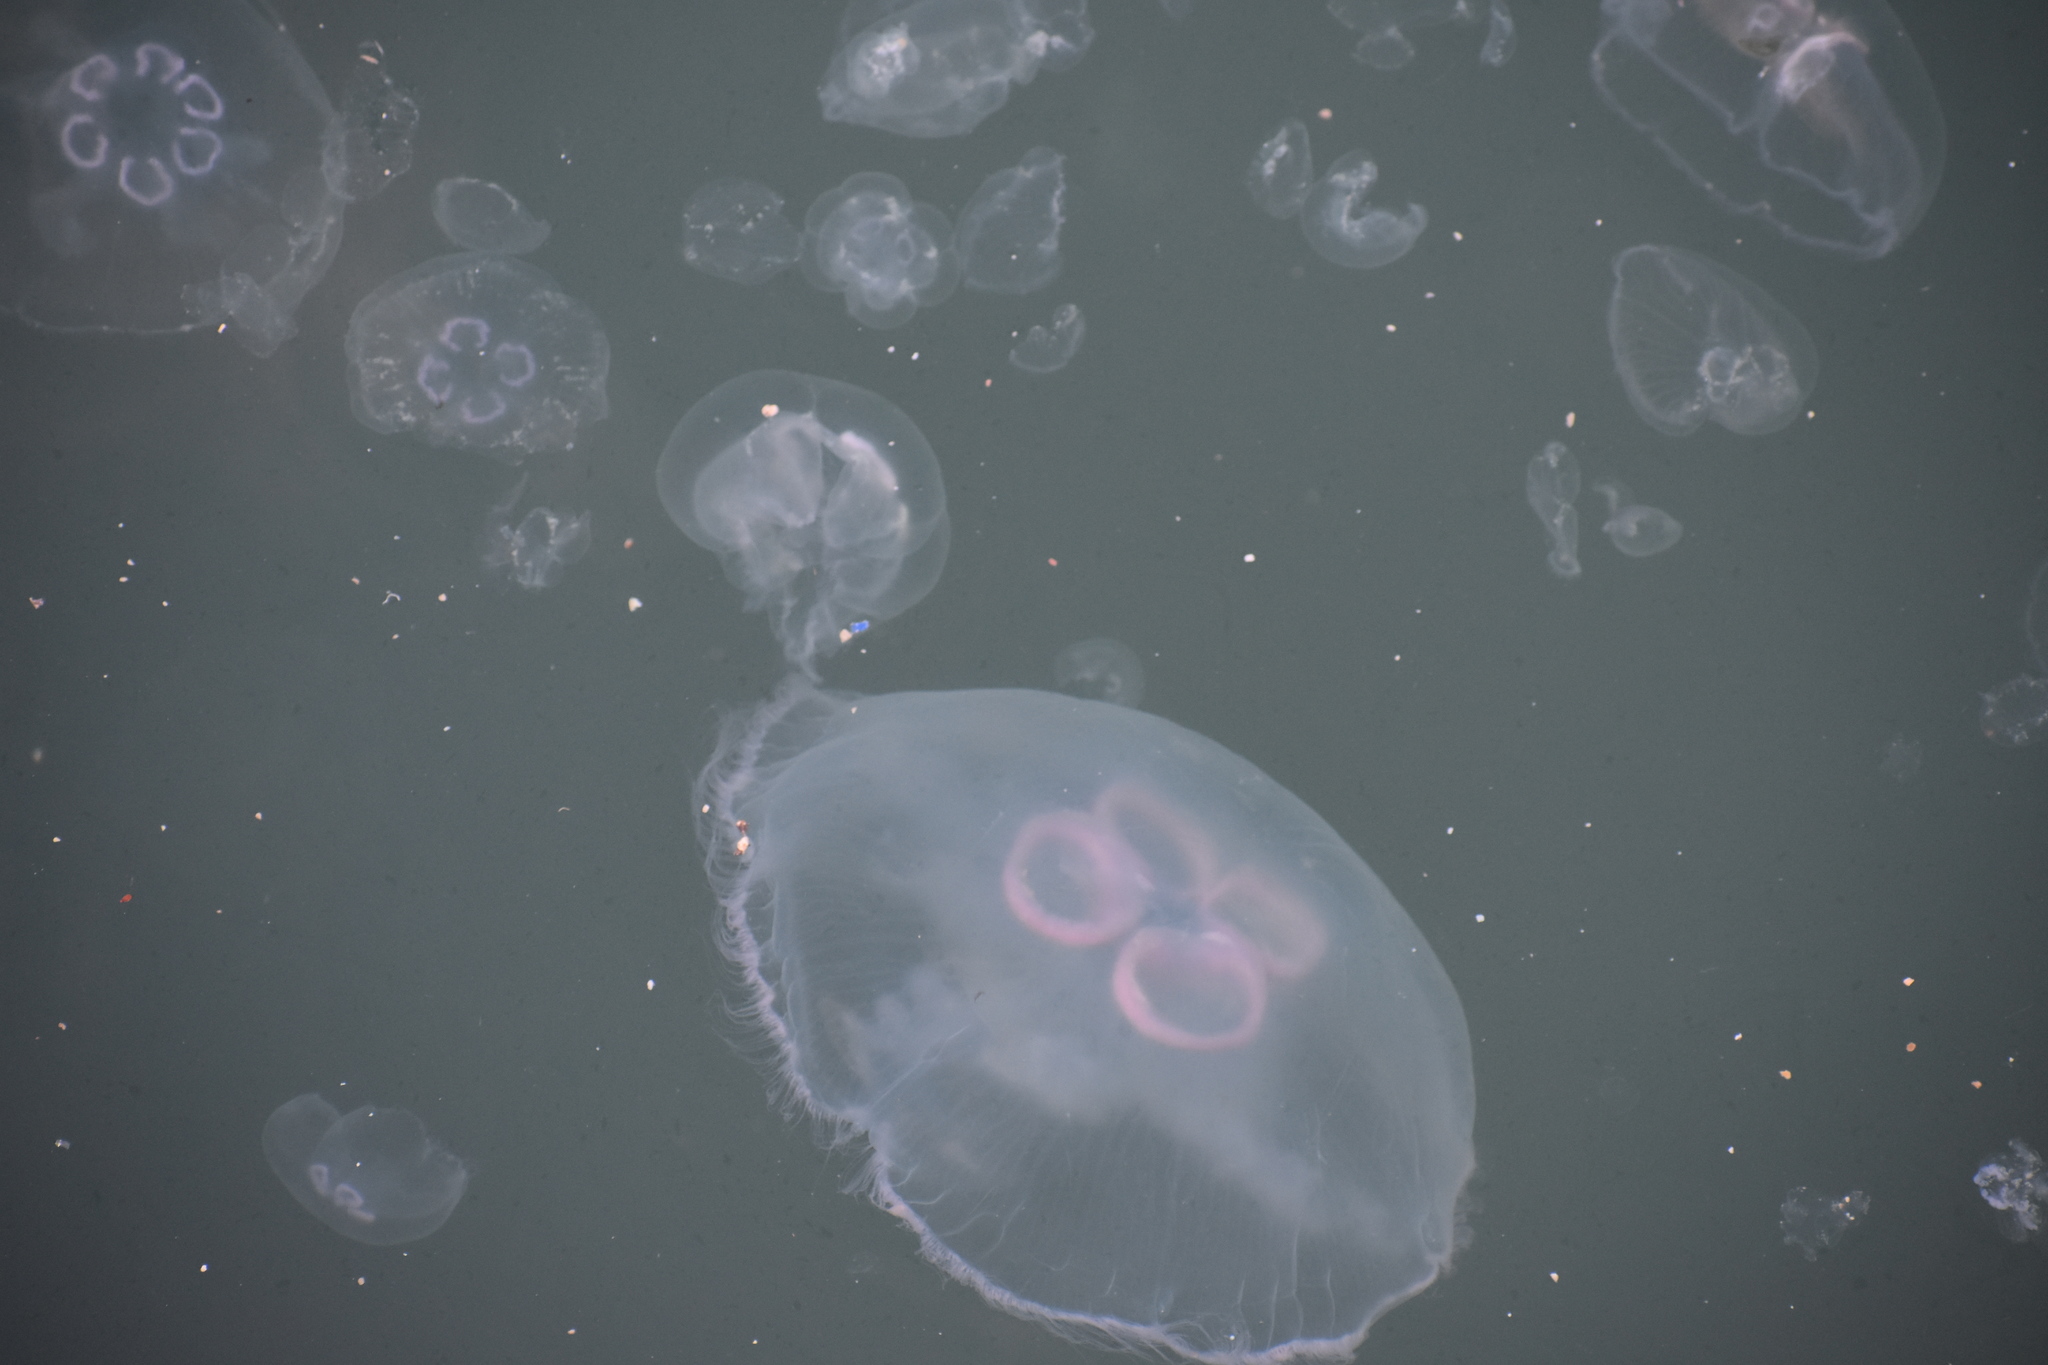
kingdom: Animalia
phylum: Cnidaria
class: Scyphozoa
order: Semaeostomeae
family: Ulmaridae
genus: Aurelia
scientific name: Aurelia aurita
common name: Moon jellyfish
